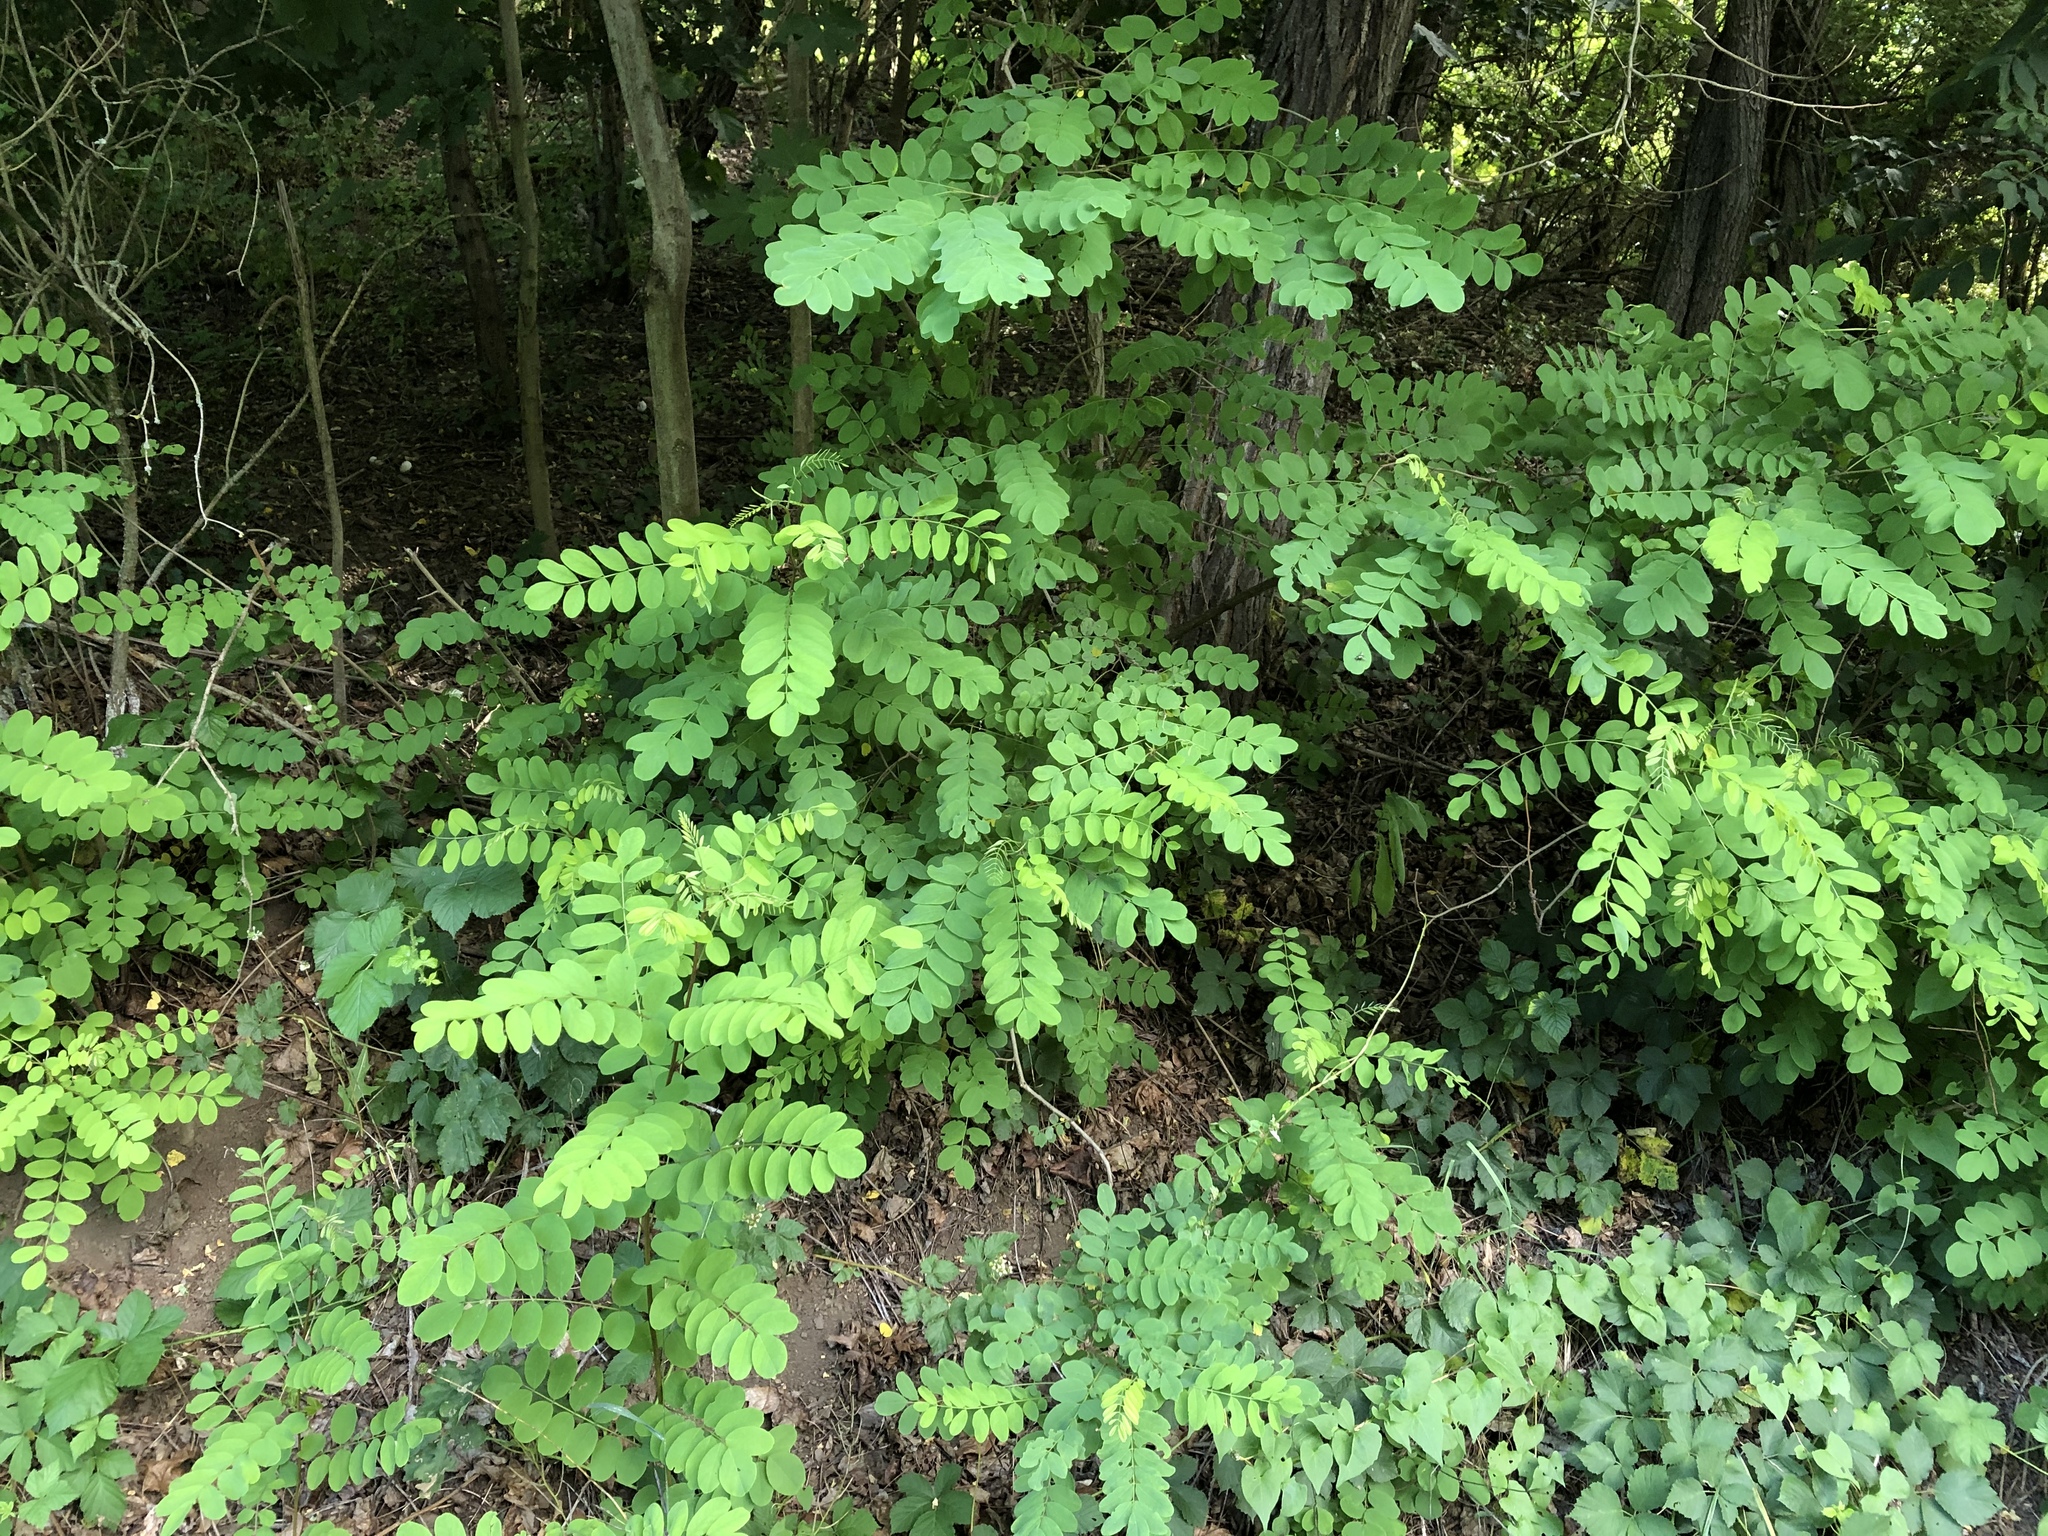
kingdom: Plantae
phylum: Tracheophyta
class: Magnoliopsida
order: Fabales
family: Fabaceae
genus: Robinia
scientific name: Robinia pseudoacacia
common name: Black locust
